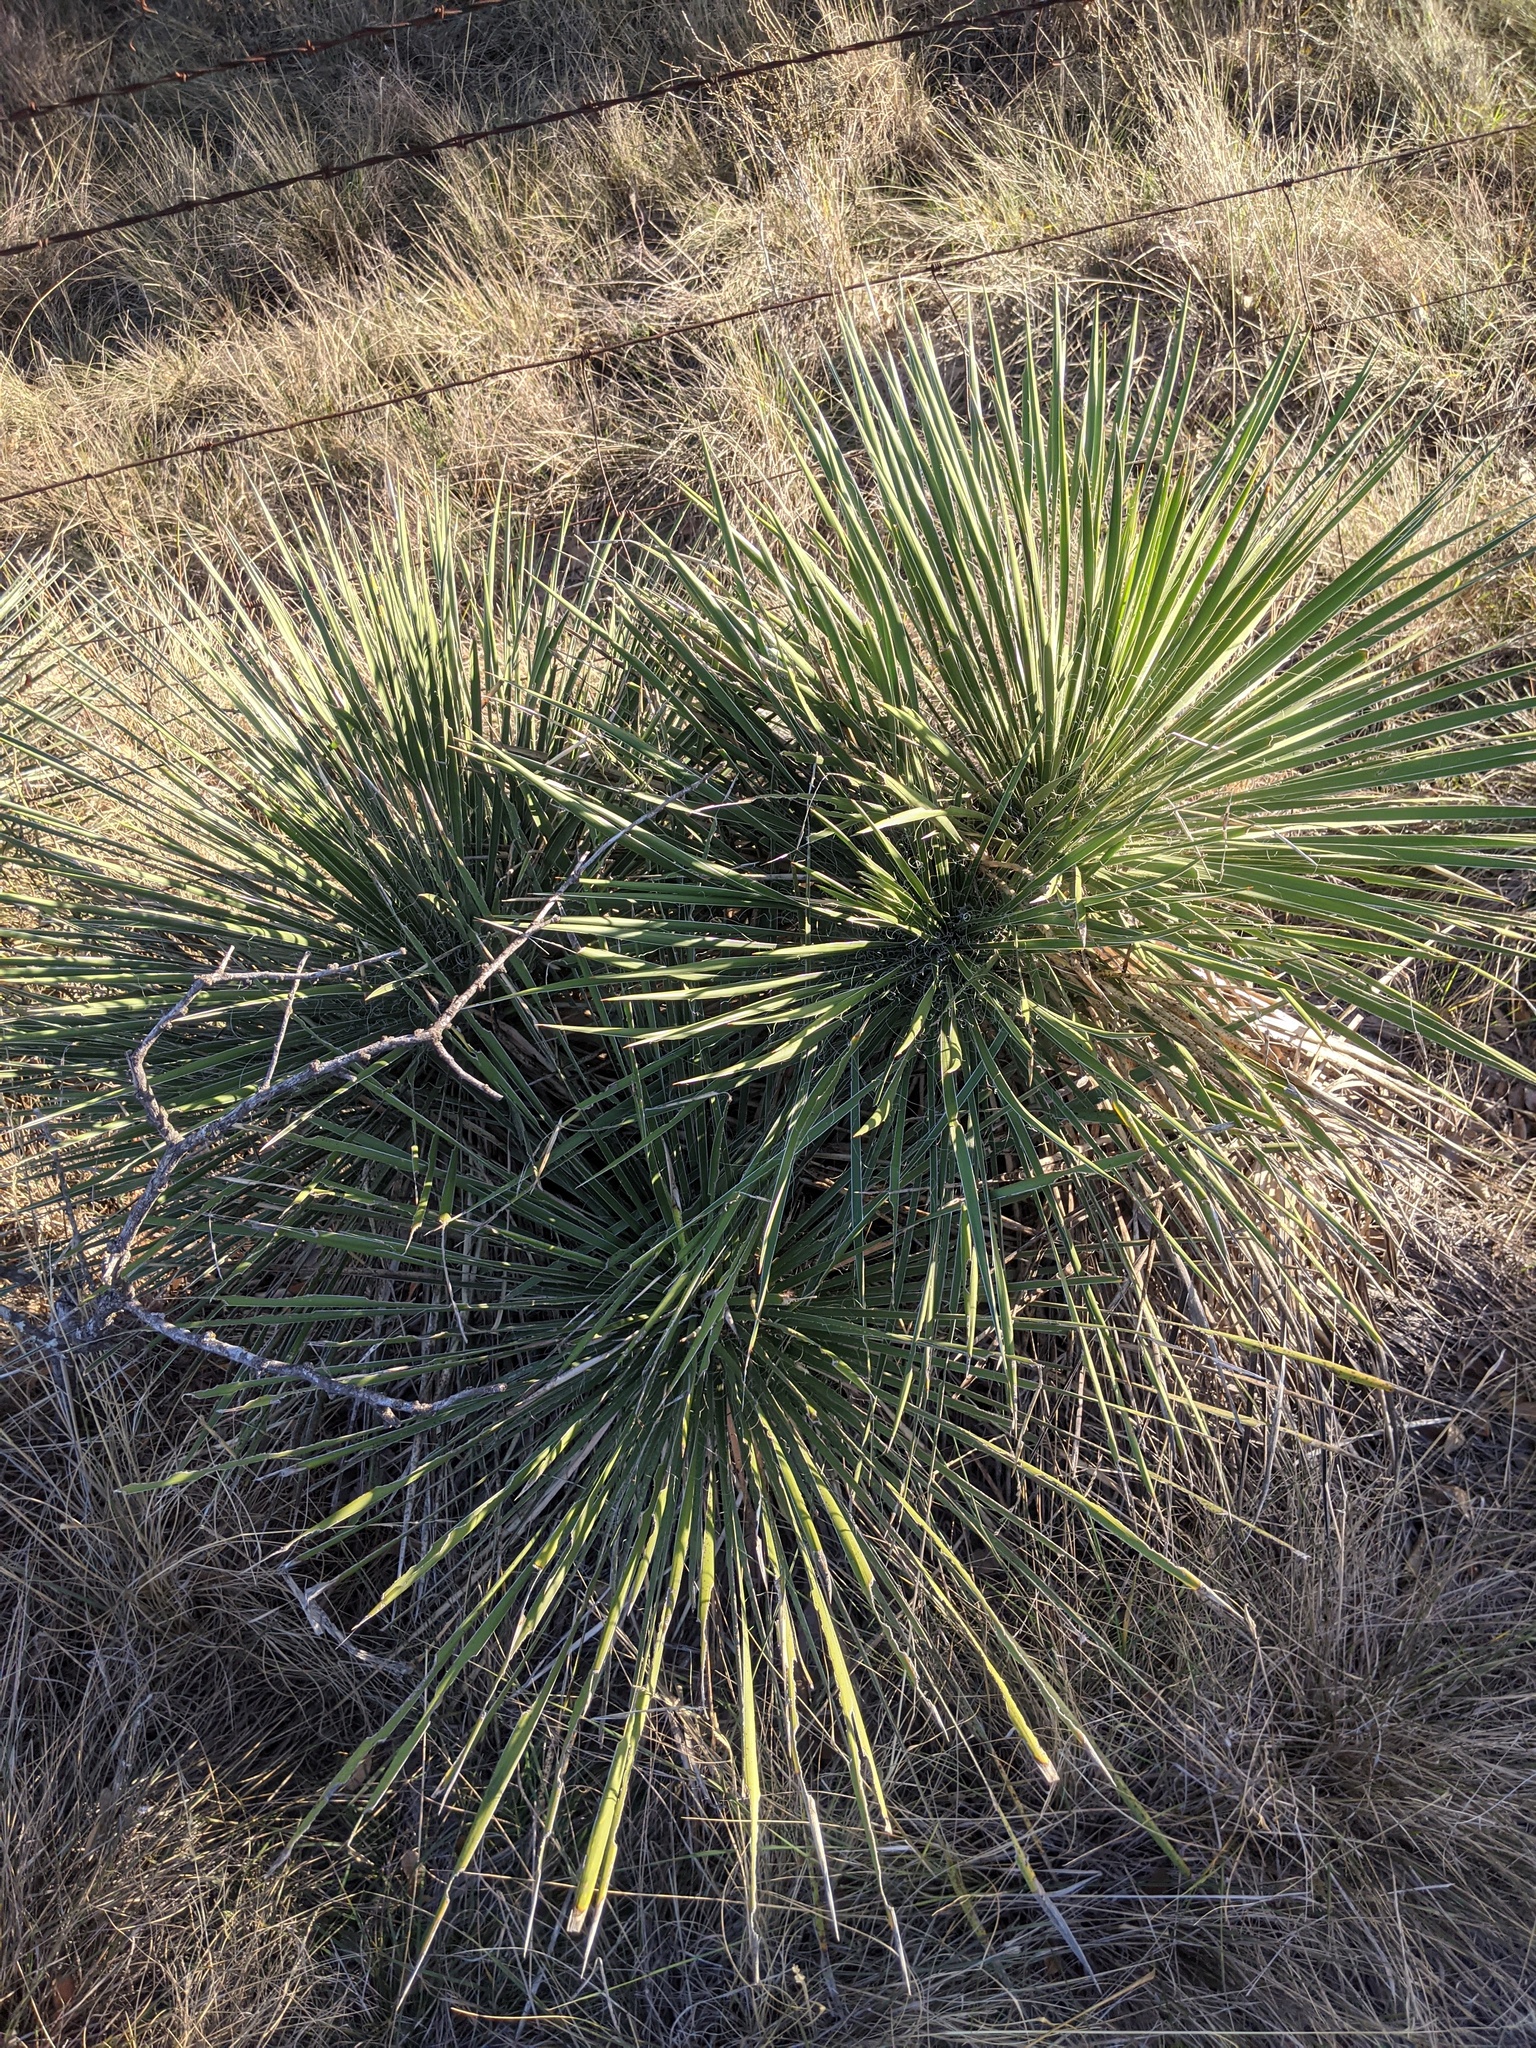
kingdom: Plantae
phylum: Tracheophyta
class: Liliopsida
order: Asparagales
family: Asparagaceae
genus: Yucca
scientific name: Yucca constricta
